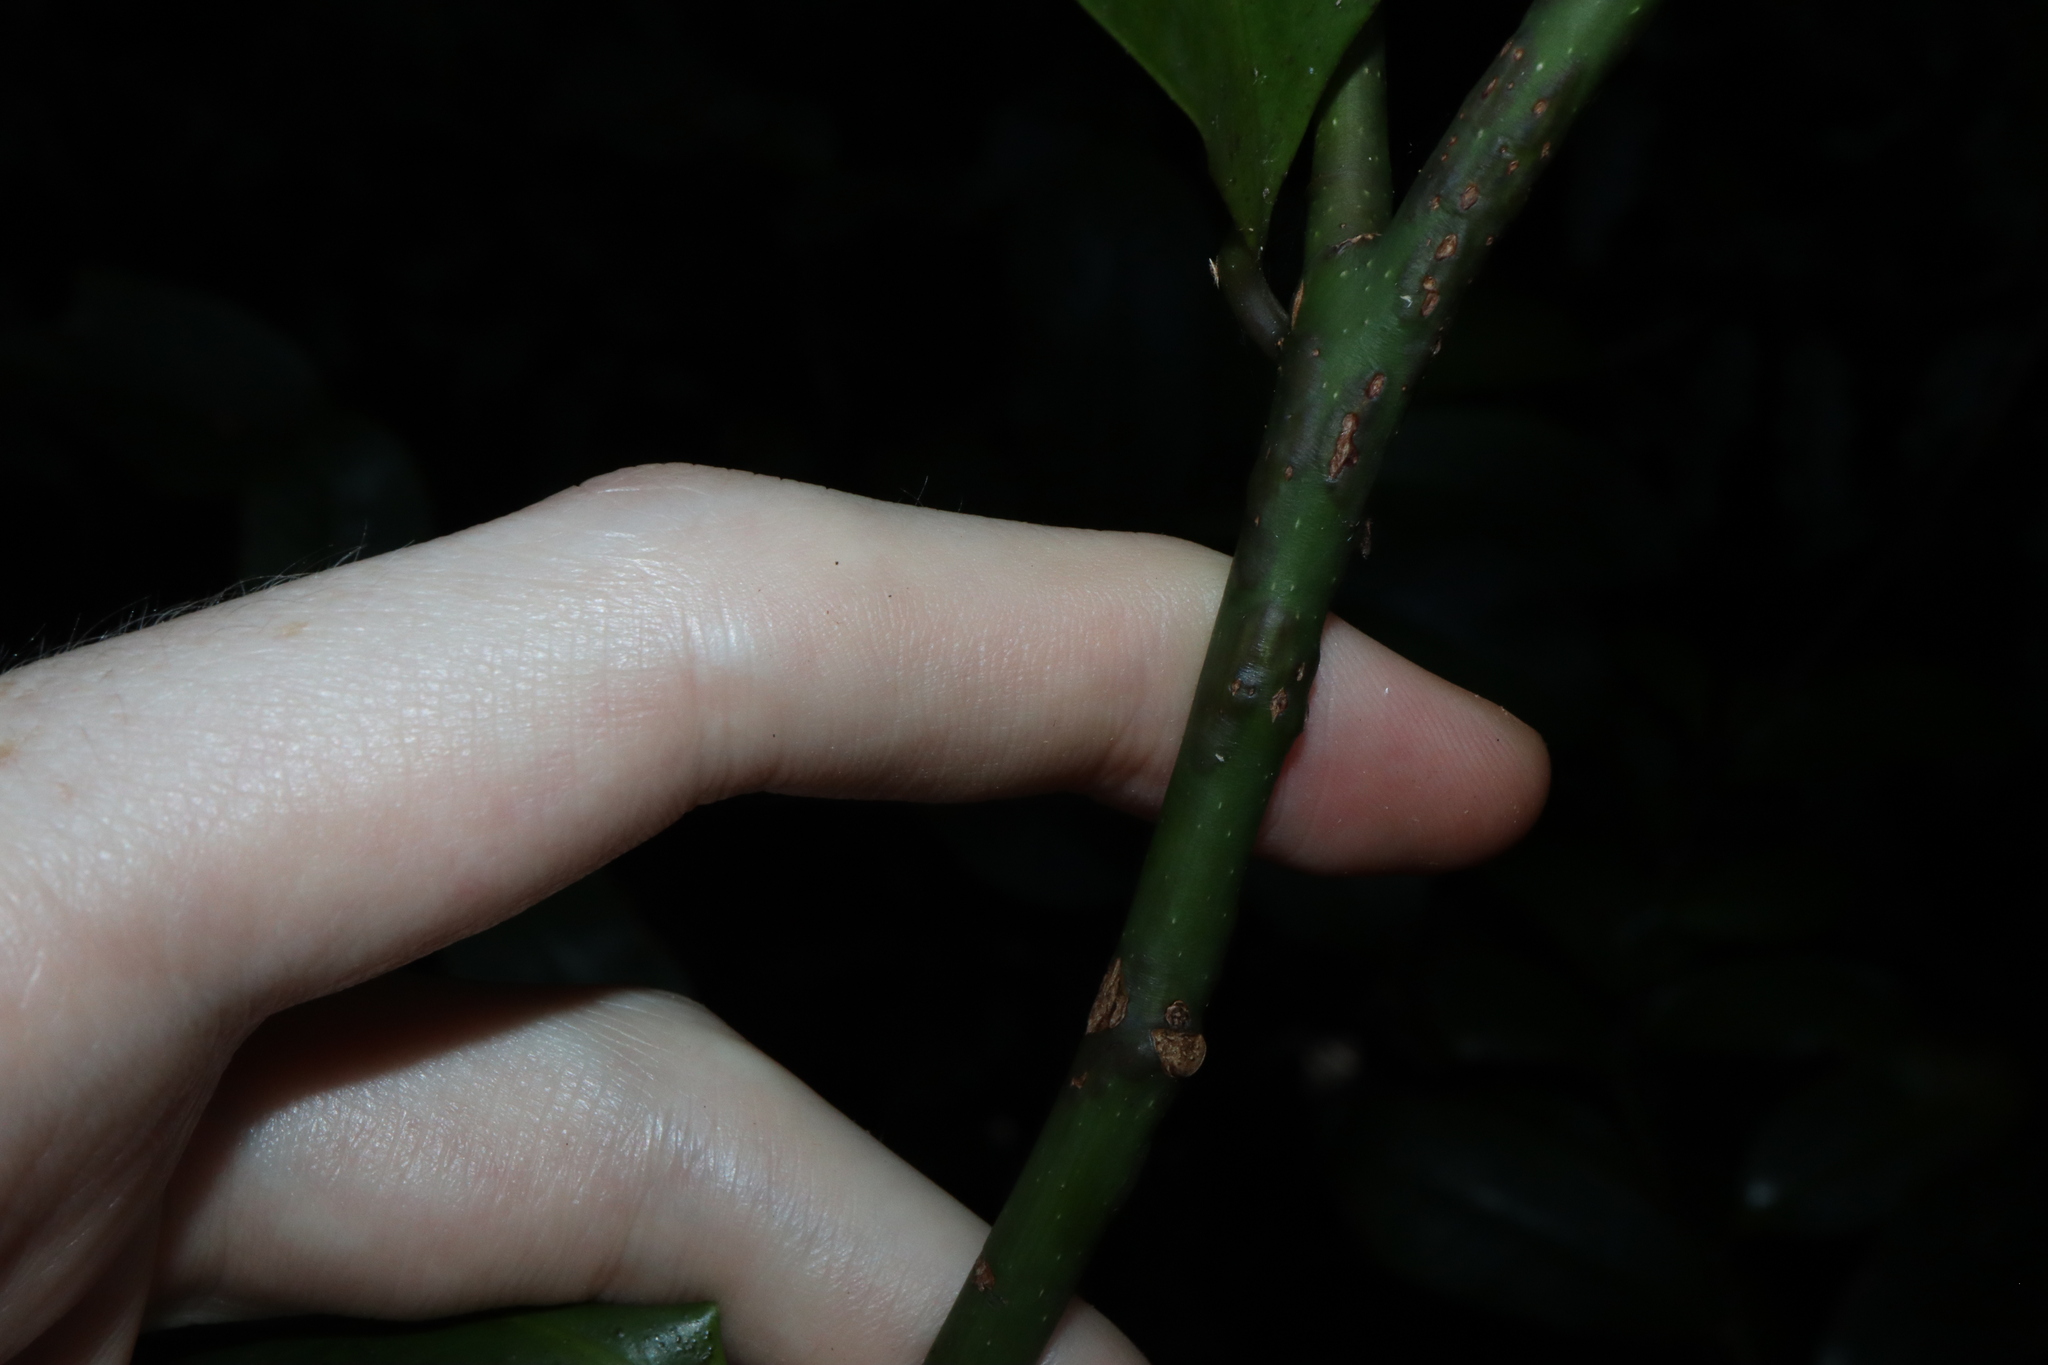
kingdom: Plantae
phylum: Tracheophyta
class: Magnoliopsida
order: Magnoliales
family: Eupomatiaceae
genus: Eupomatia
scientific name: Eupomatia laurina
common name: Bolwarra
